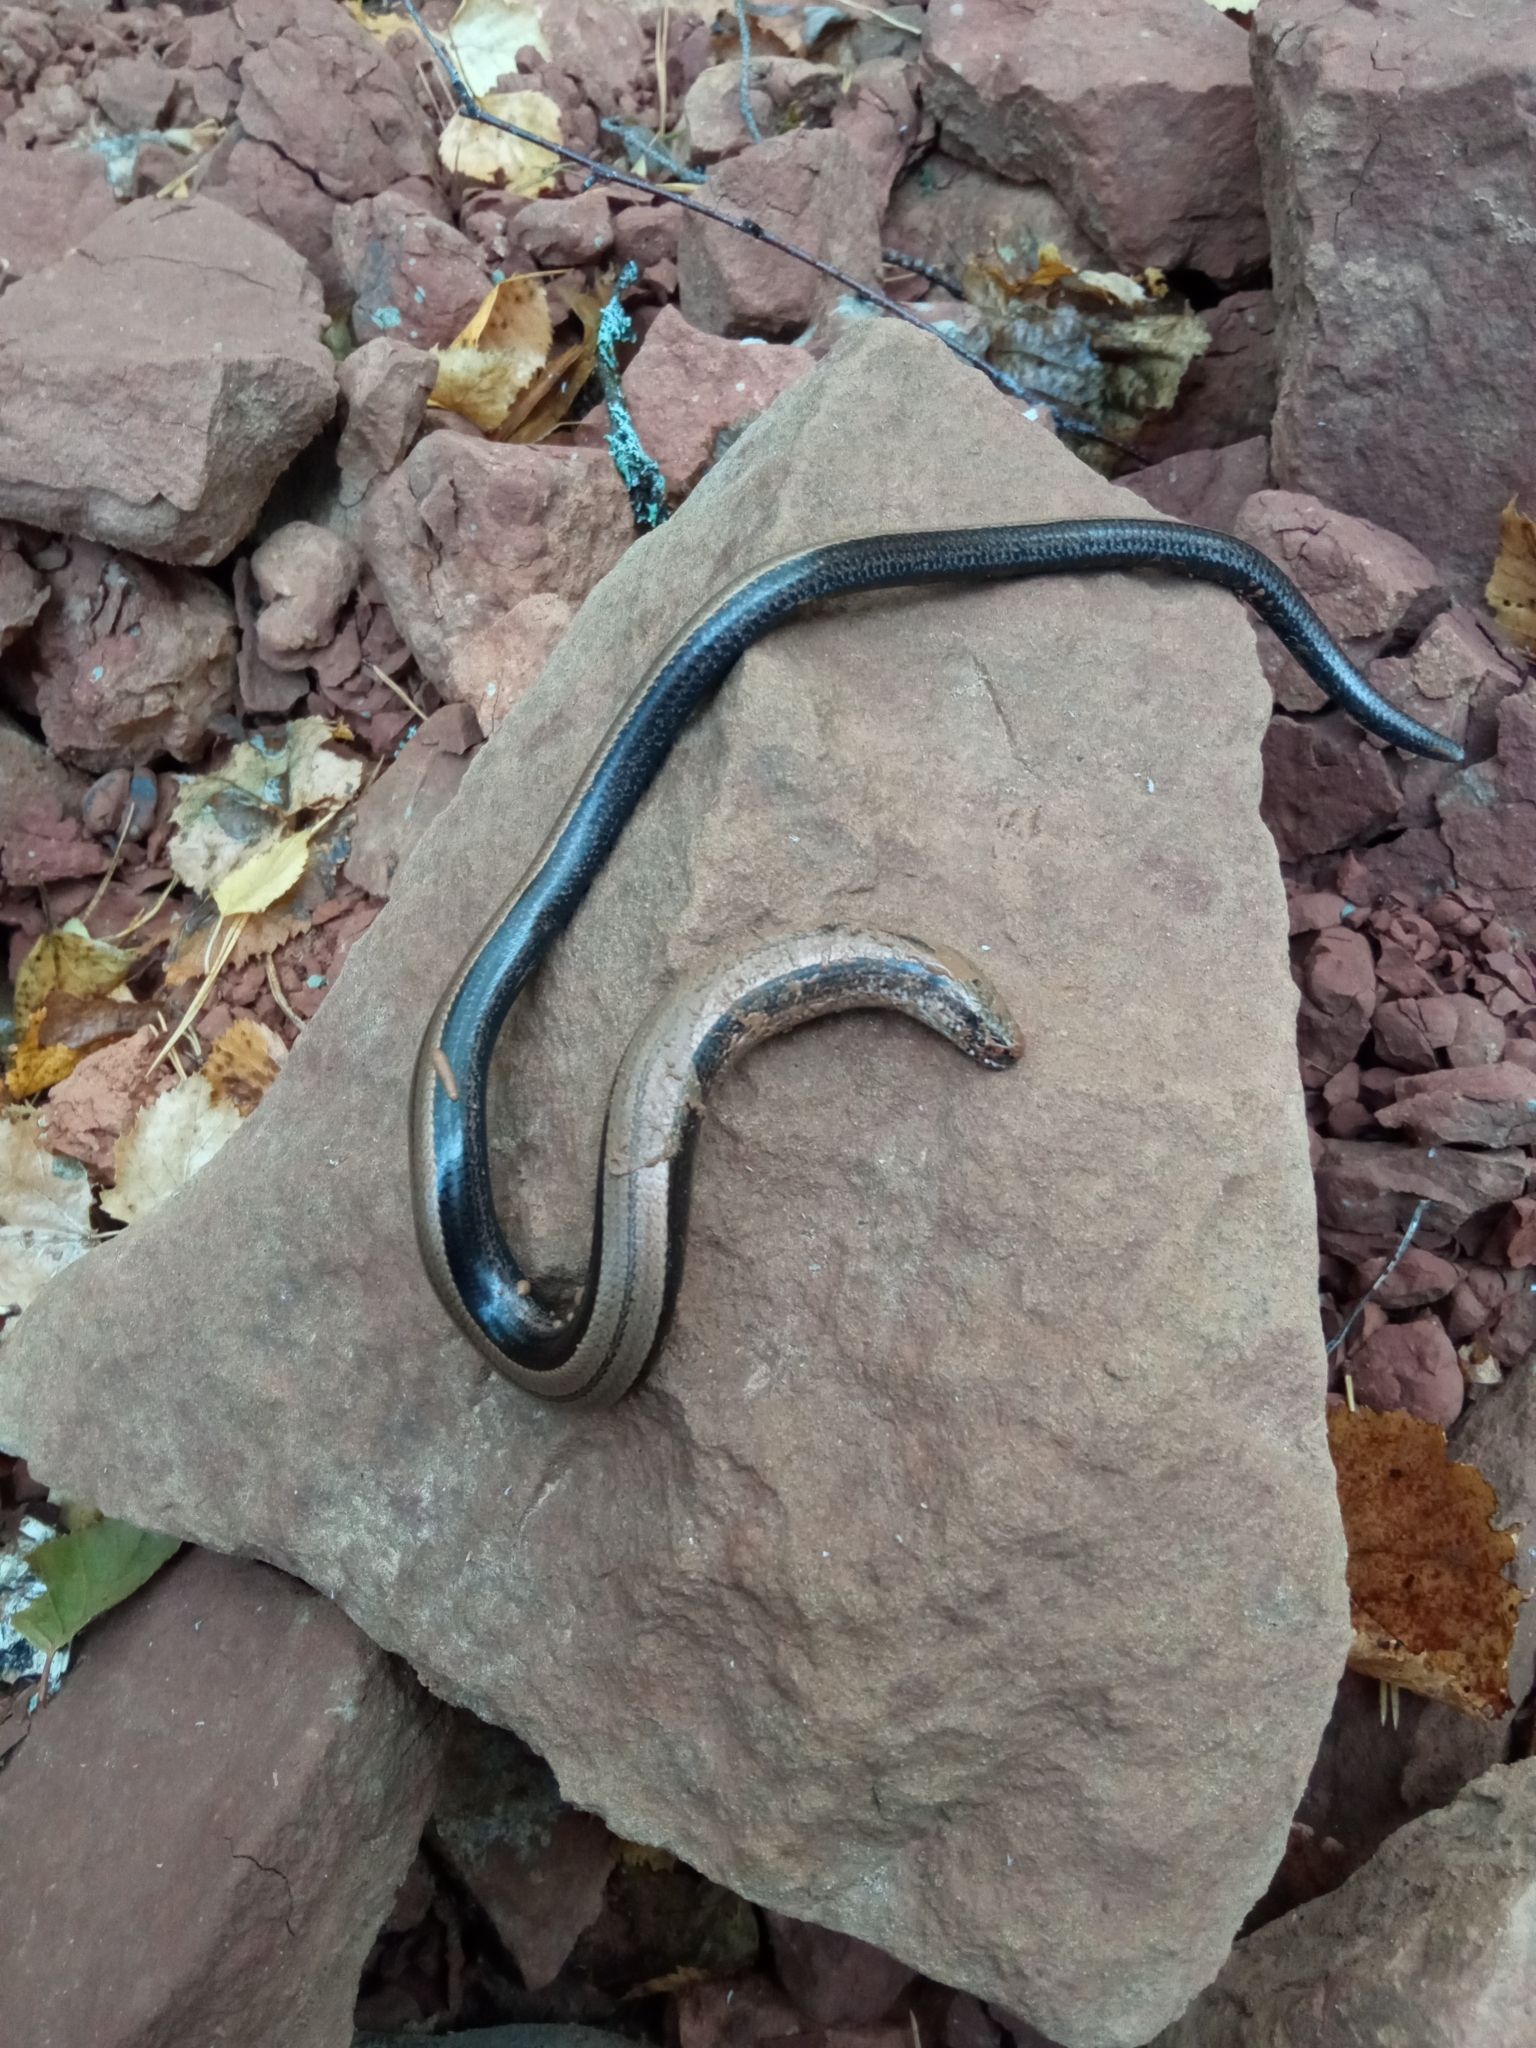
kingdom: Animalia
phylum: Chordata
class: Squamata
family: Anguidae
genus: Anguis
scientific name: Anguis colchica
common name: Slow worm
